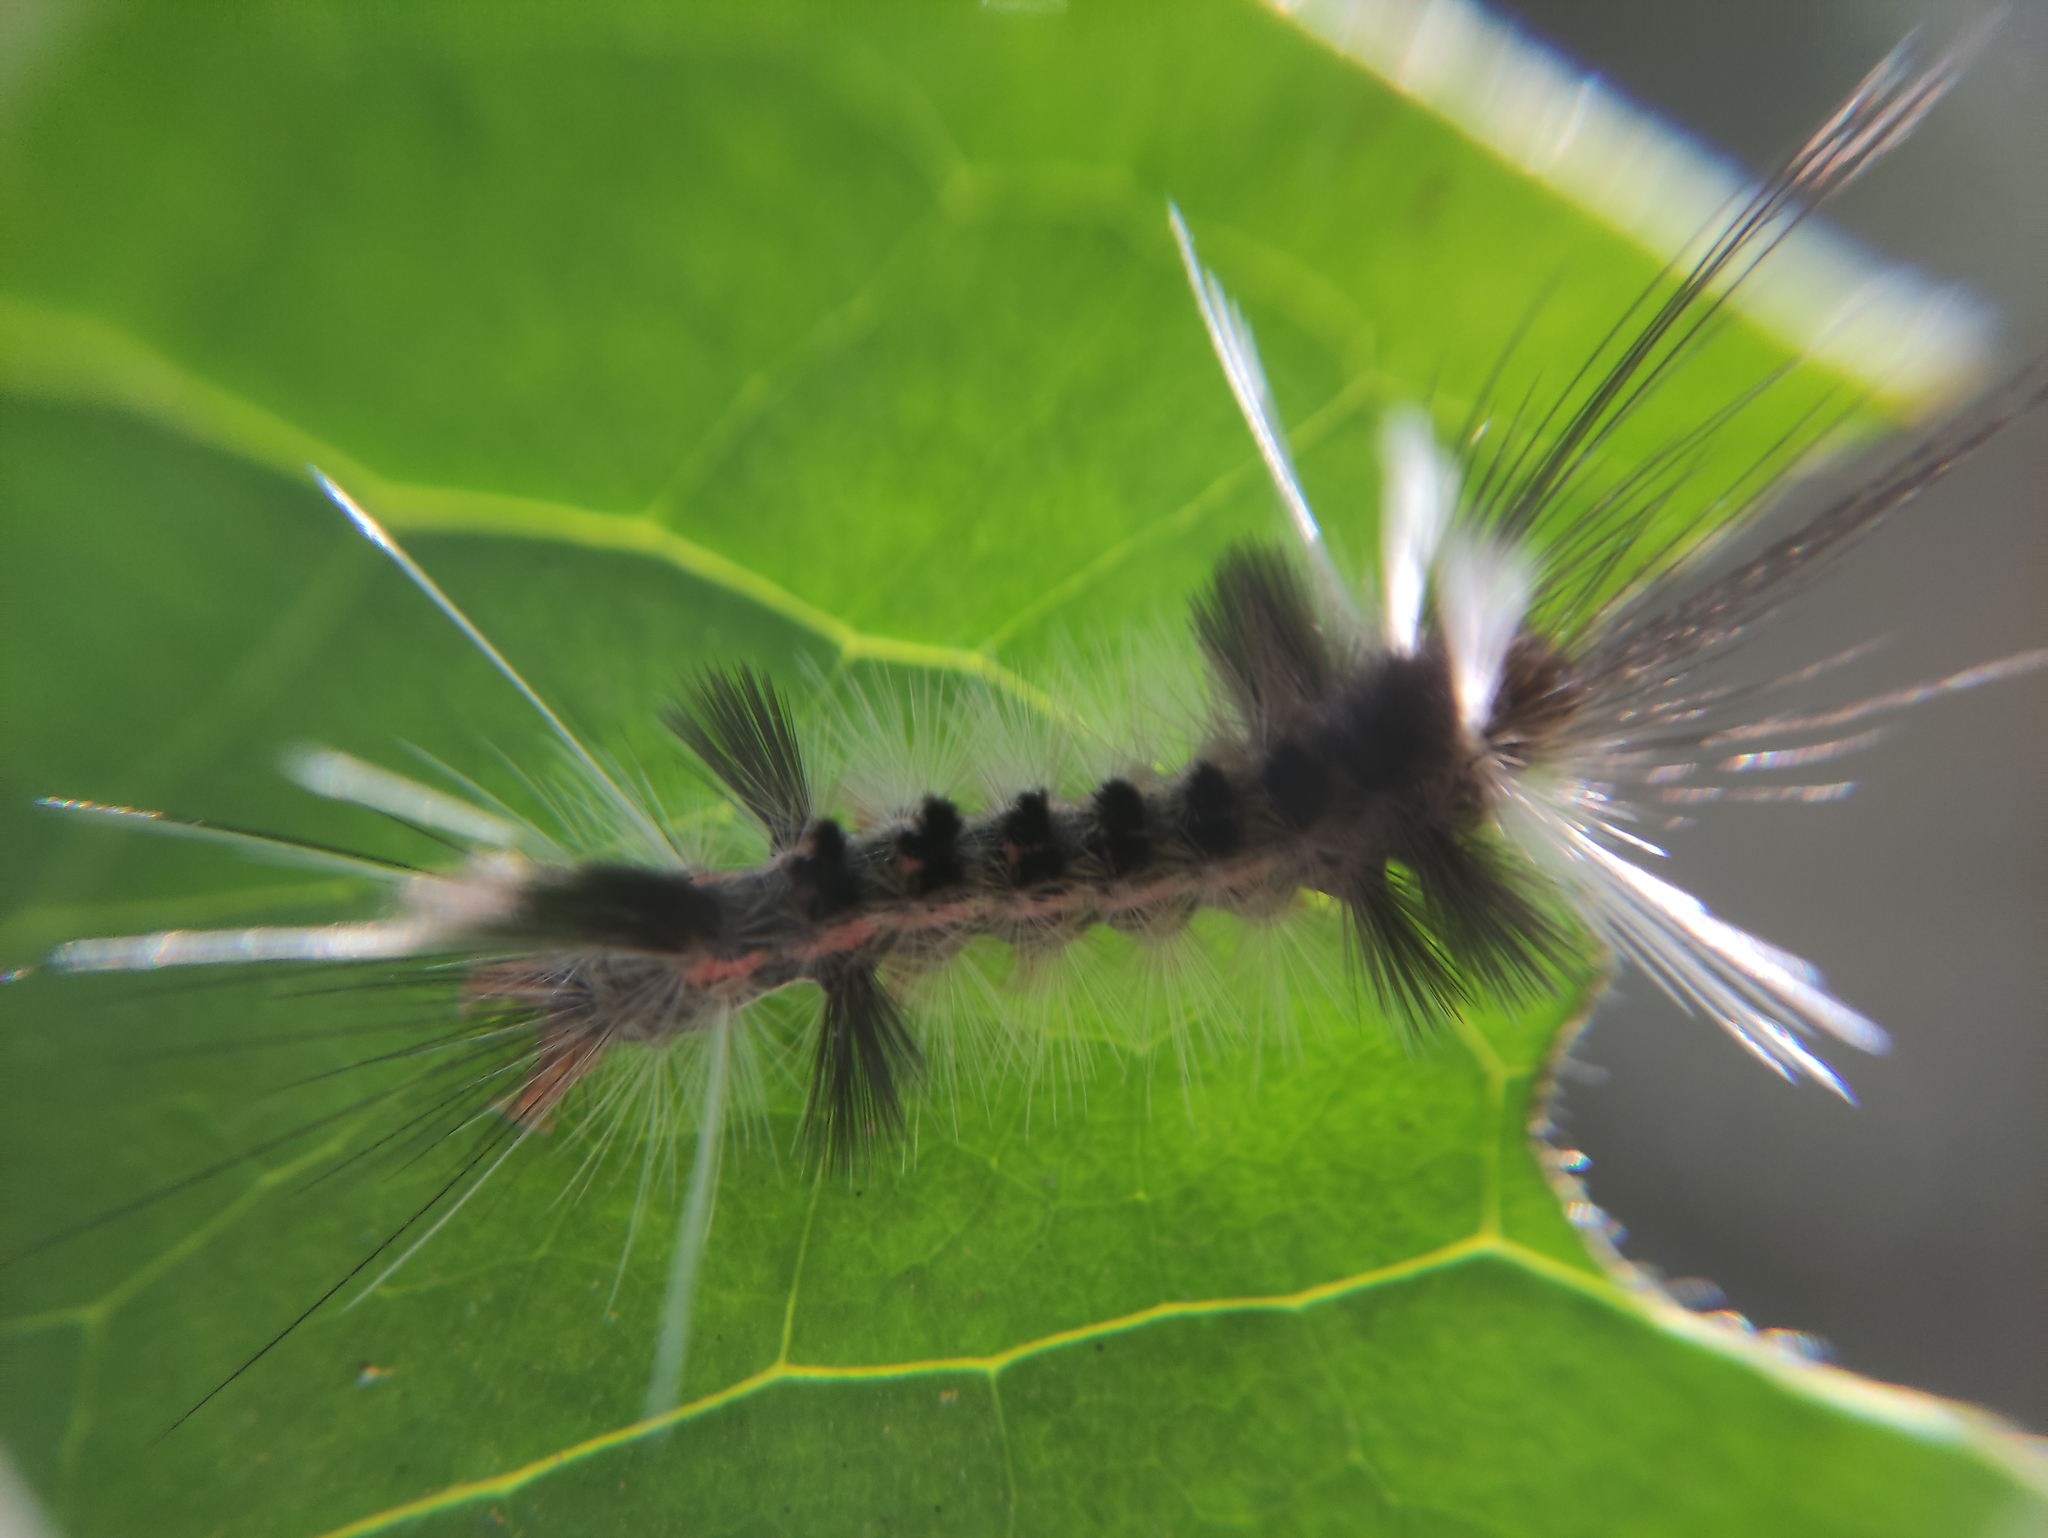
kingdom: Animalia
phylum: Arthropoda
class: Insecta
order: Lepidoptera
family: Erebidae
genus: Carales
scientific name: Carales astur
